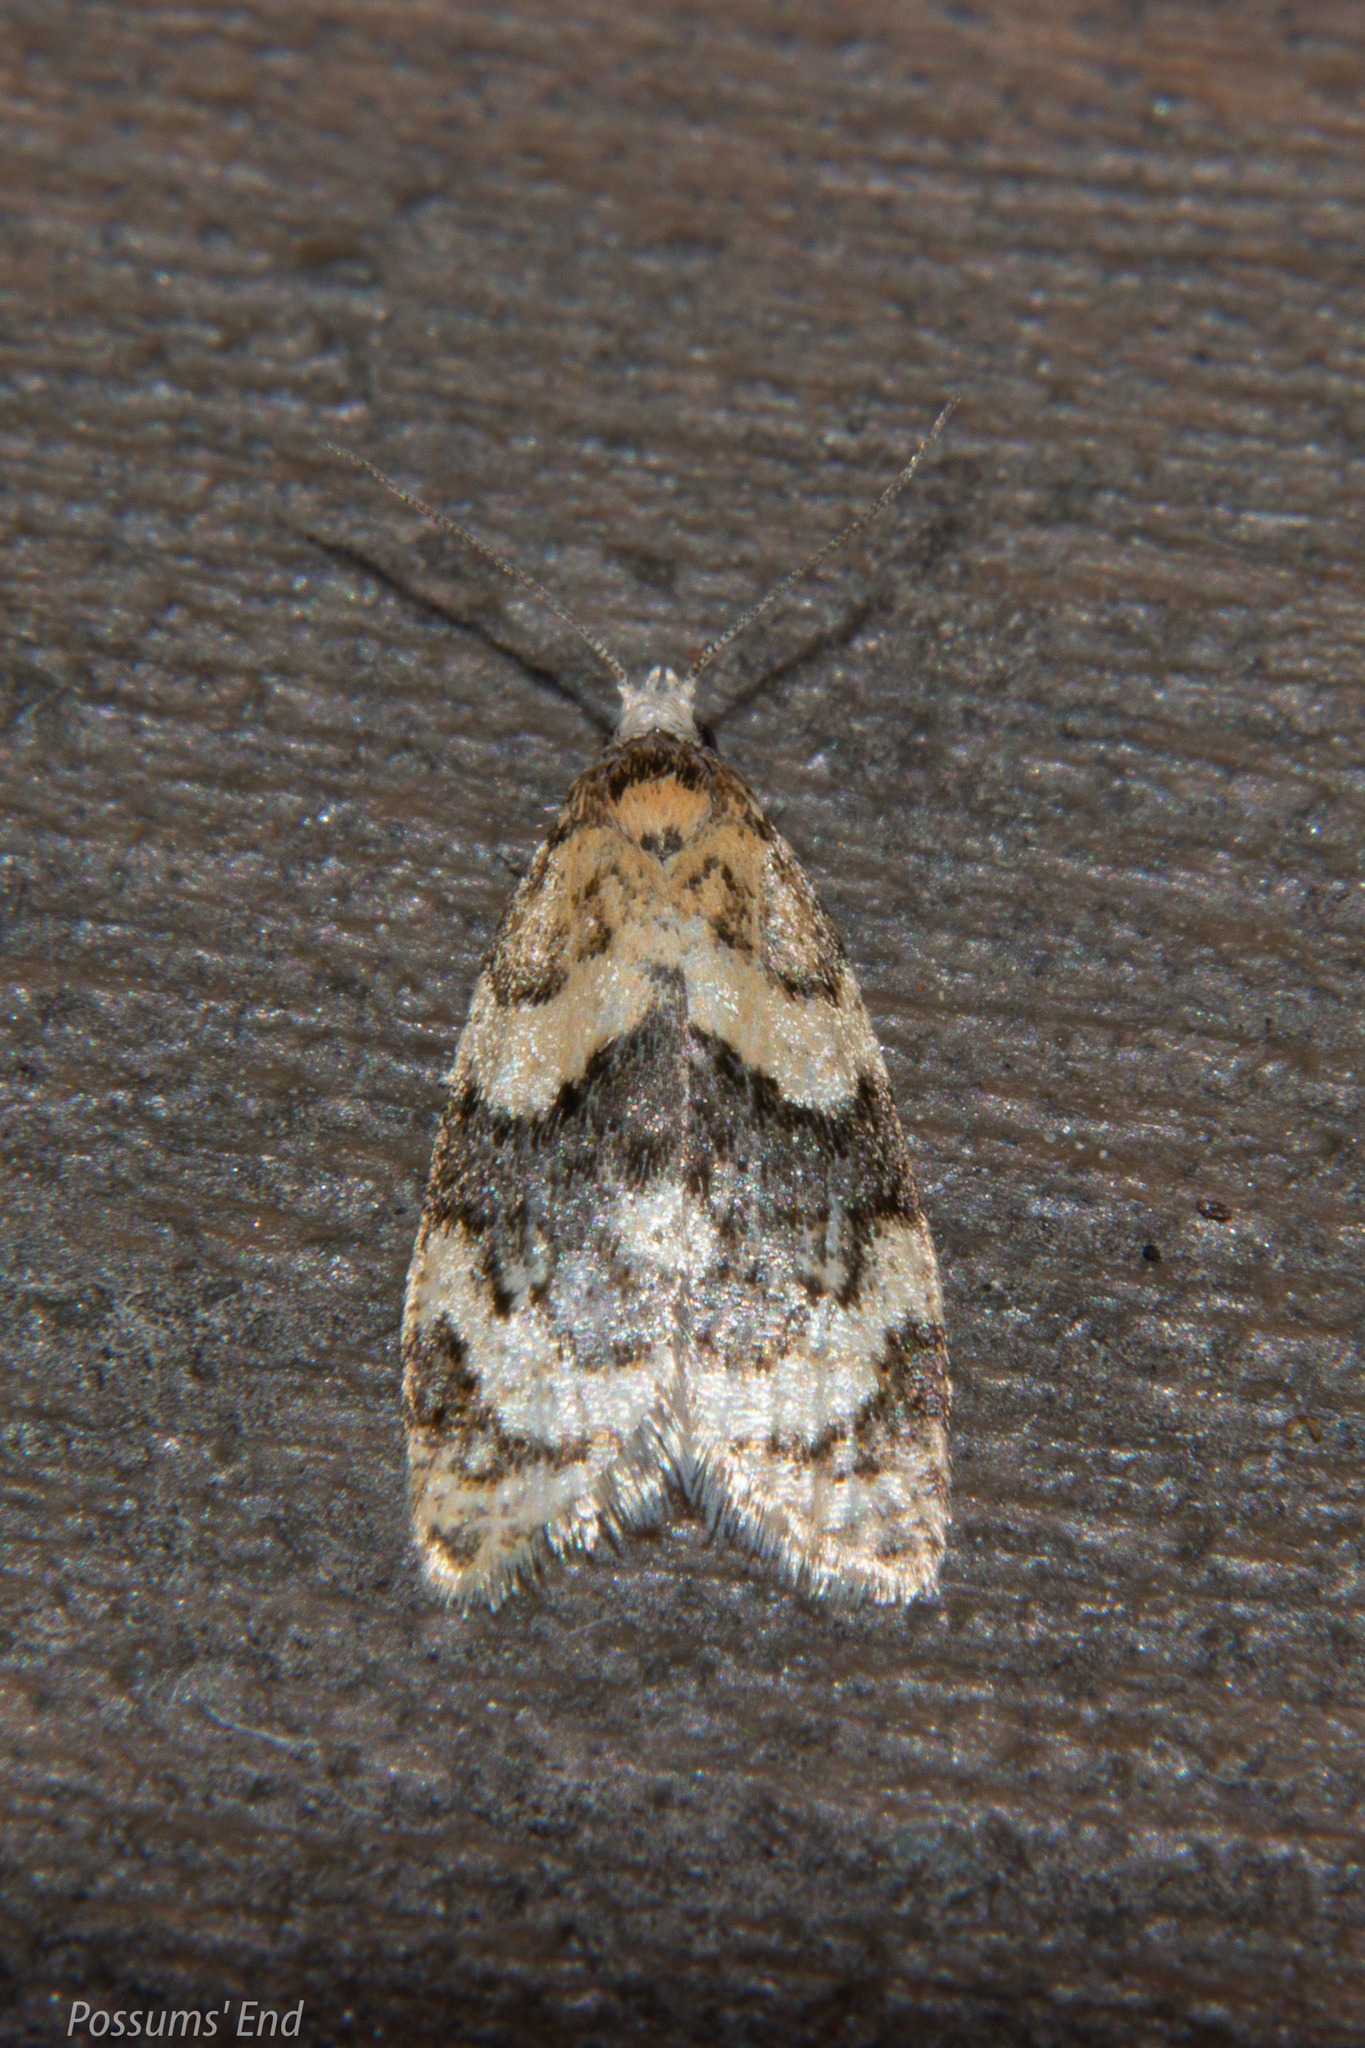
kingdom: Animalia
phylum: Arthropoda
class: Insecta
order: Lepidoptera
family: Tortricidae
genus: Dipterina
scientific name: Dipterina imbriferana
